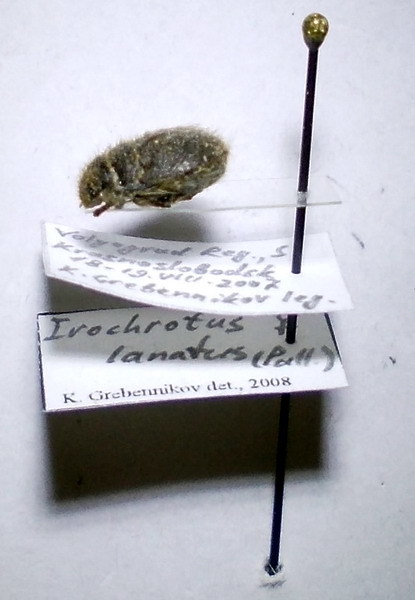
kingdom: Animalia
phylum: Arthropoda
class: Insecta
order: Hemiptera
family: Scutelleridae
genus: Irochrotus
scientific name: Irochrotus lanatus
